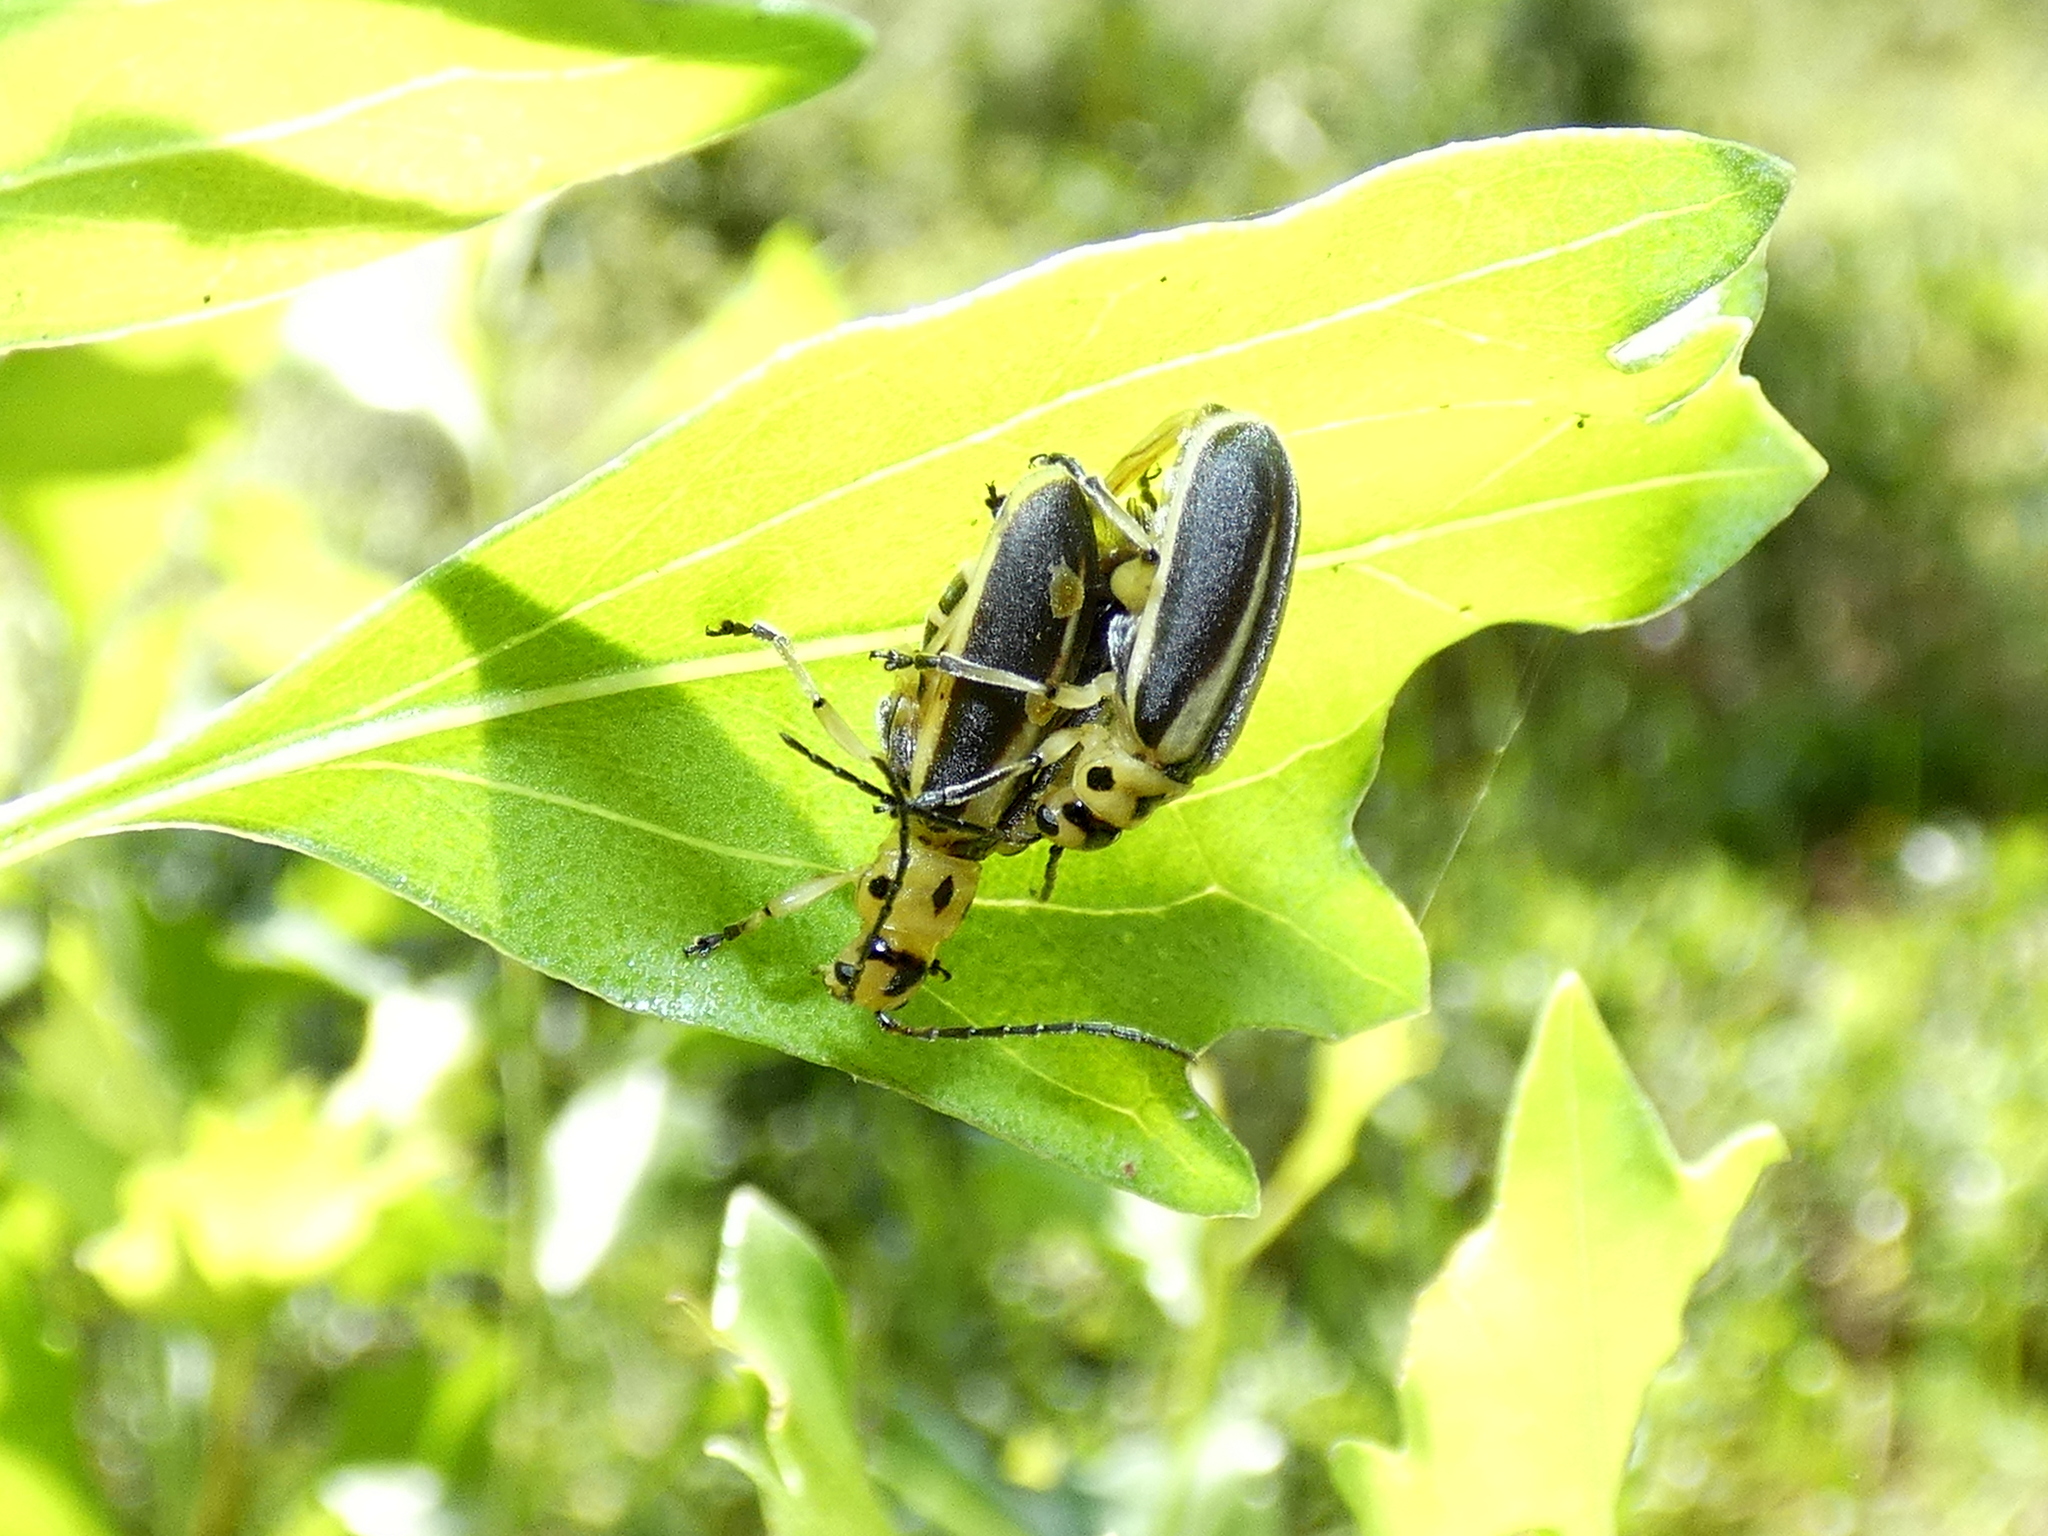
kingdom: Animalia
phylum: Arthropoda
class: Insecta
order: Coleoptera
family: Chrysomelidae
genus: Trirhabda
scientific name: Trirhabda bacharidis
